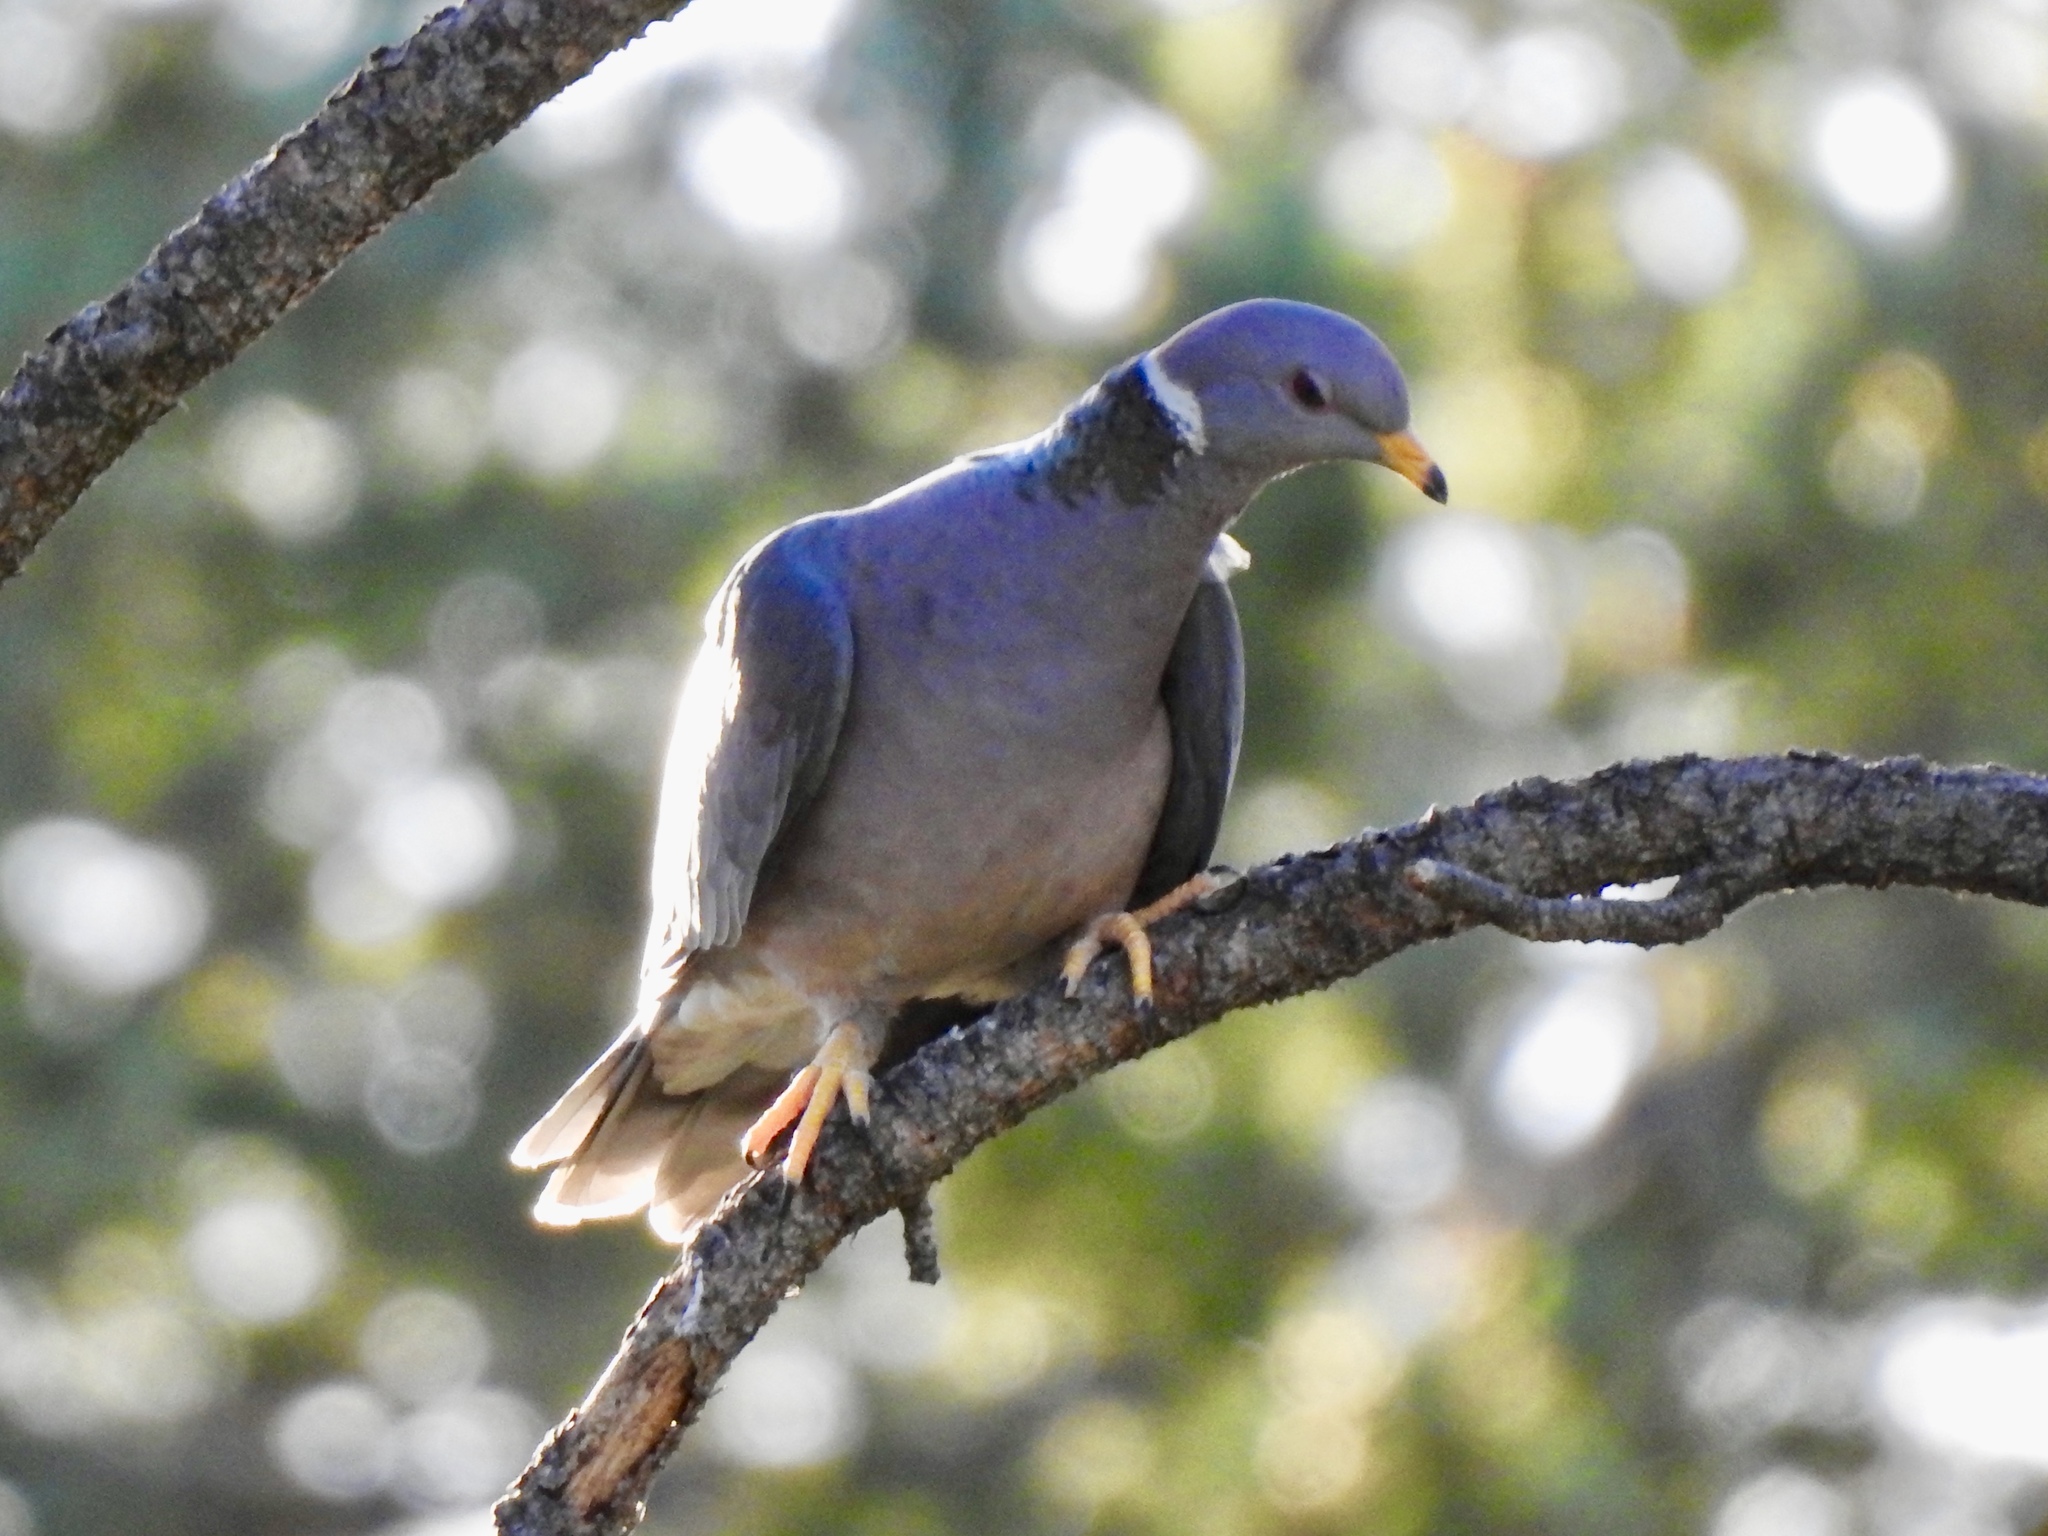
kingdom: Animalia
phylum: Chordata
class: Aves
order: Columbiformes
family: Columbidae
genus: Patagioenas
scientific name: Patagioenas fasciata
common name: Band-tailed pigeon
